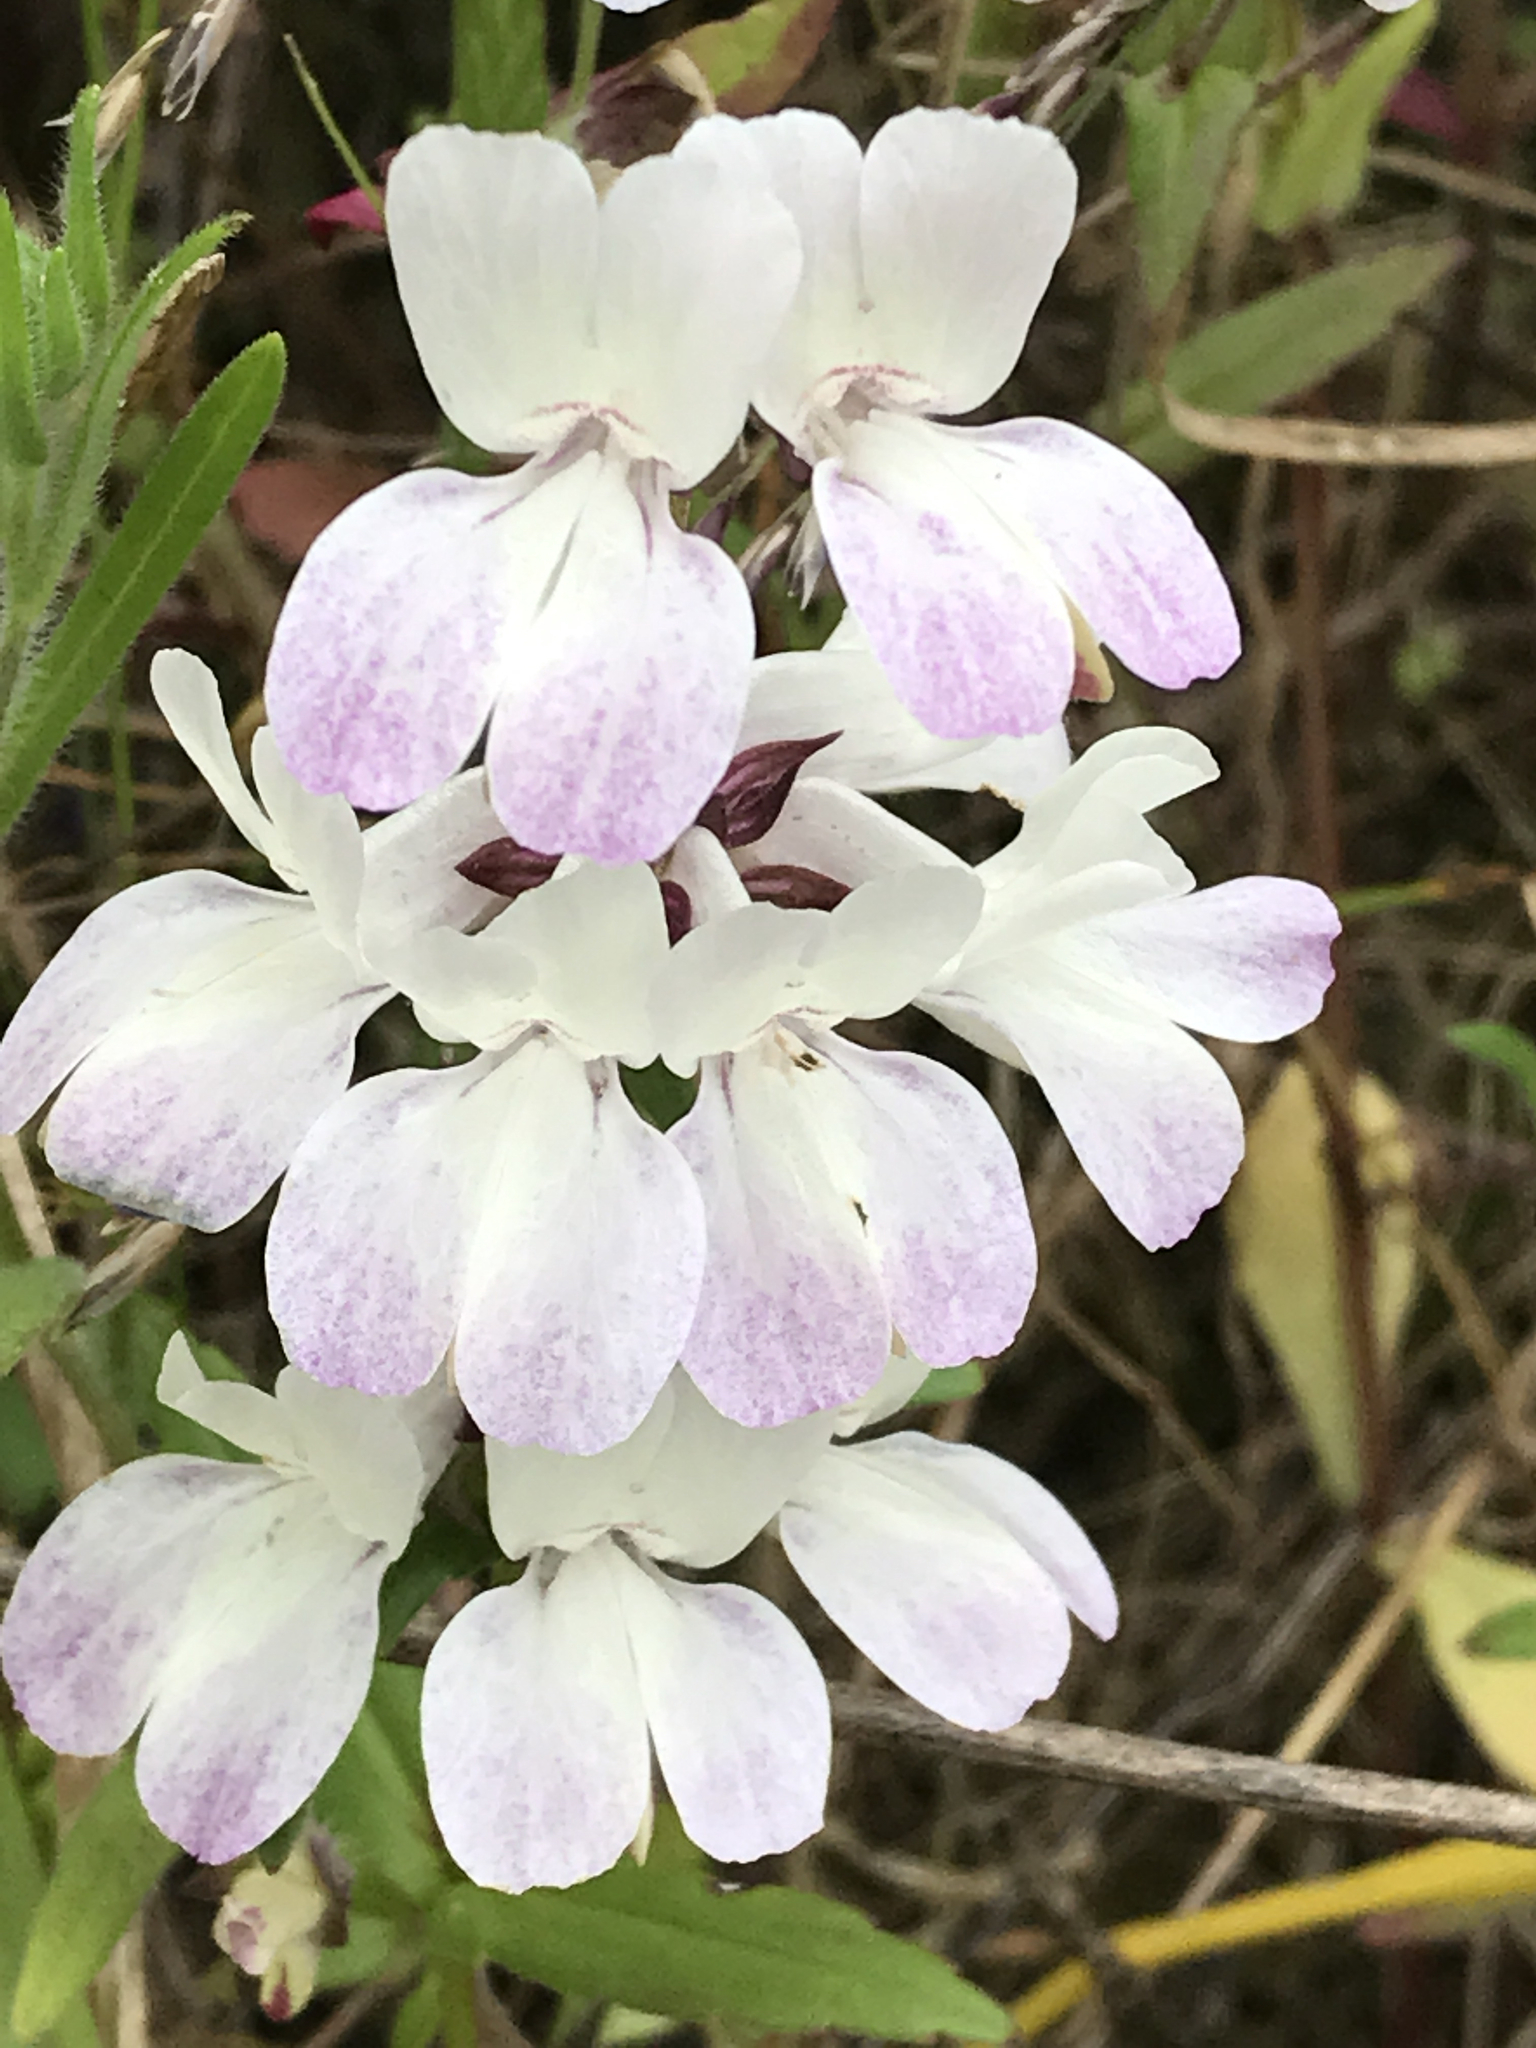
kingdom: Plantae
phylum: Tracheophyta
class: Magnoliopsida
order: Lamiales
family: Plantaginaceae
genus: Collinsia
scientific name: Collinsia heterophylla
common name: Chinese-houses
